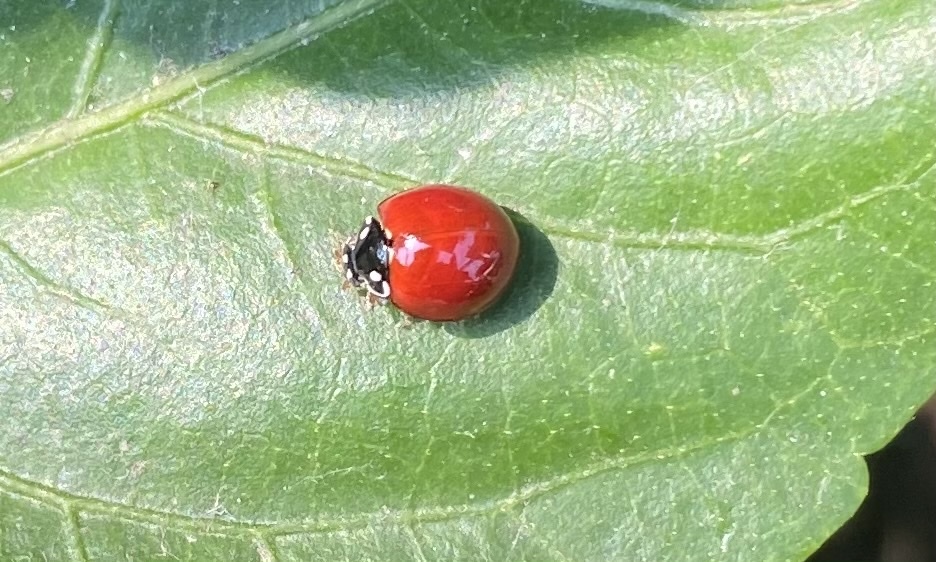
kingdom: Animalia
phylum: Arthropoda
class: Insecta
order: Coleoptera
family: Coccinellidae
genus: Cycloneda
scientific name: Cycloneda sanguinea
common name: Ladybird beetle
